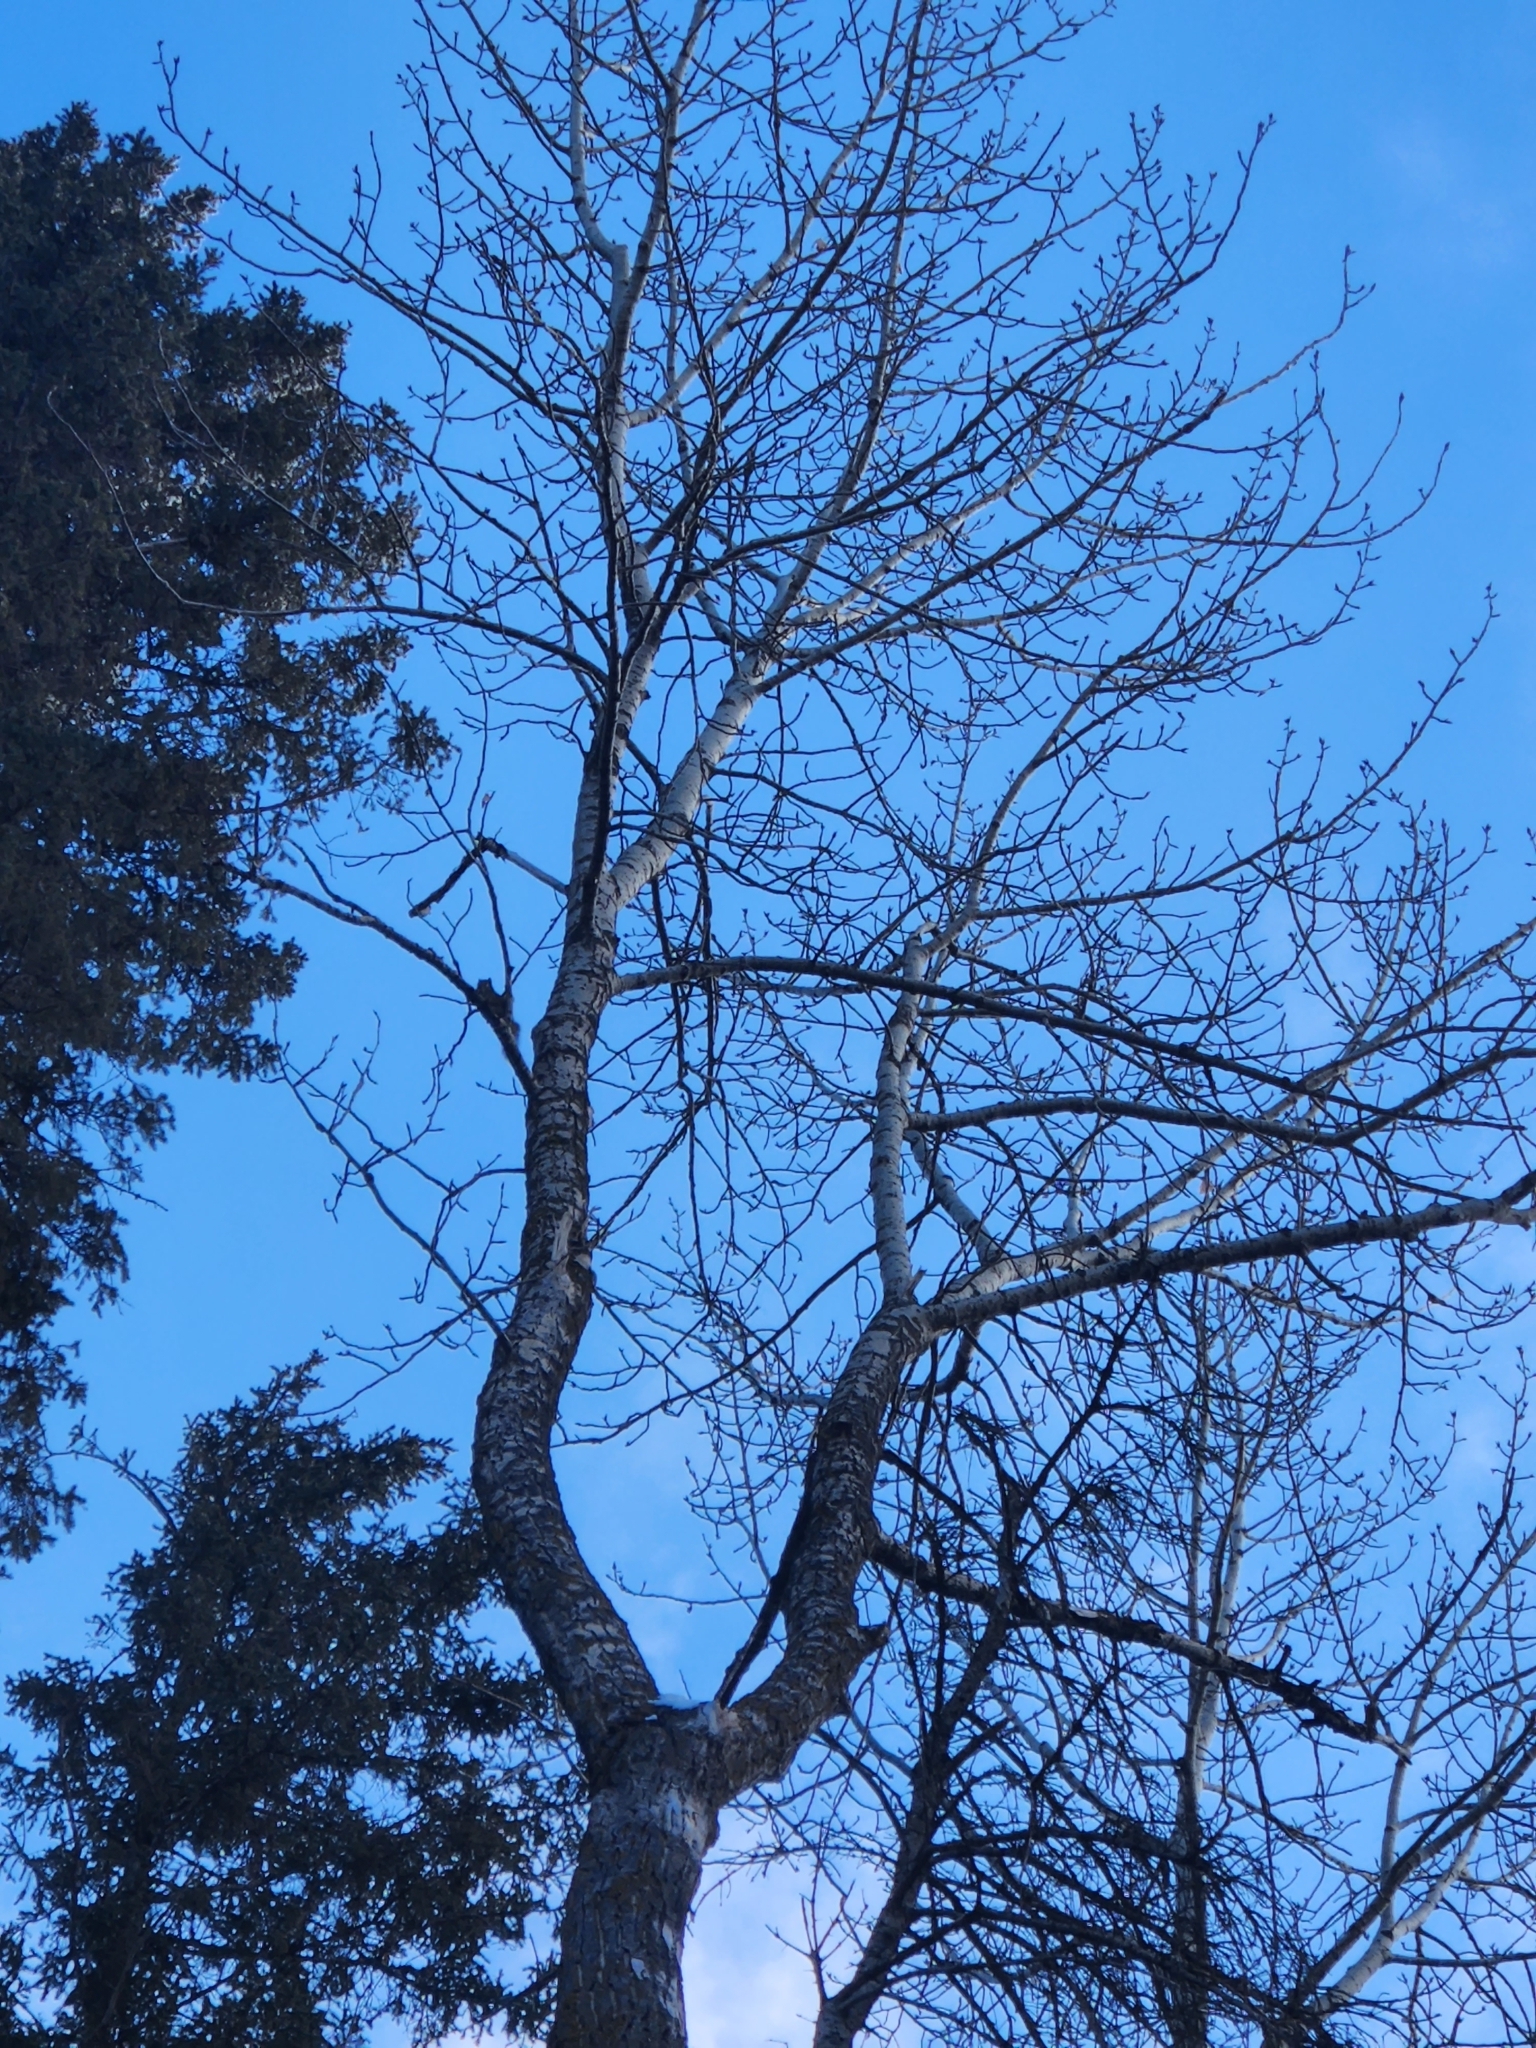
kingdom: Animalia
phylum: Chordata
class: Mammalia
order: Rodentia
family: Sciuridae
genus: Tamiasciurus
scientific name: Tamiasciurus hudsonicus
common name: Red squirrel
